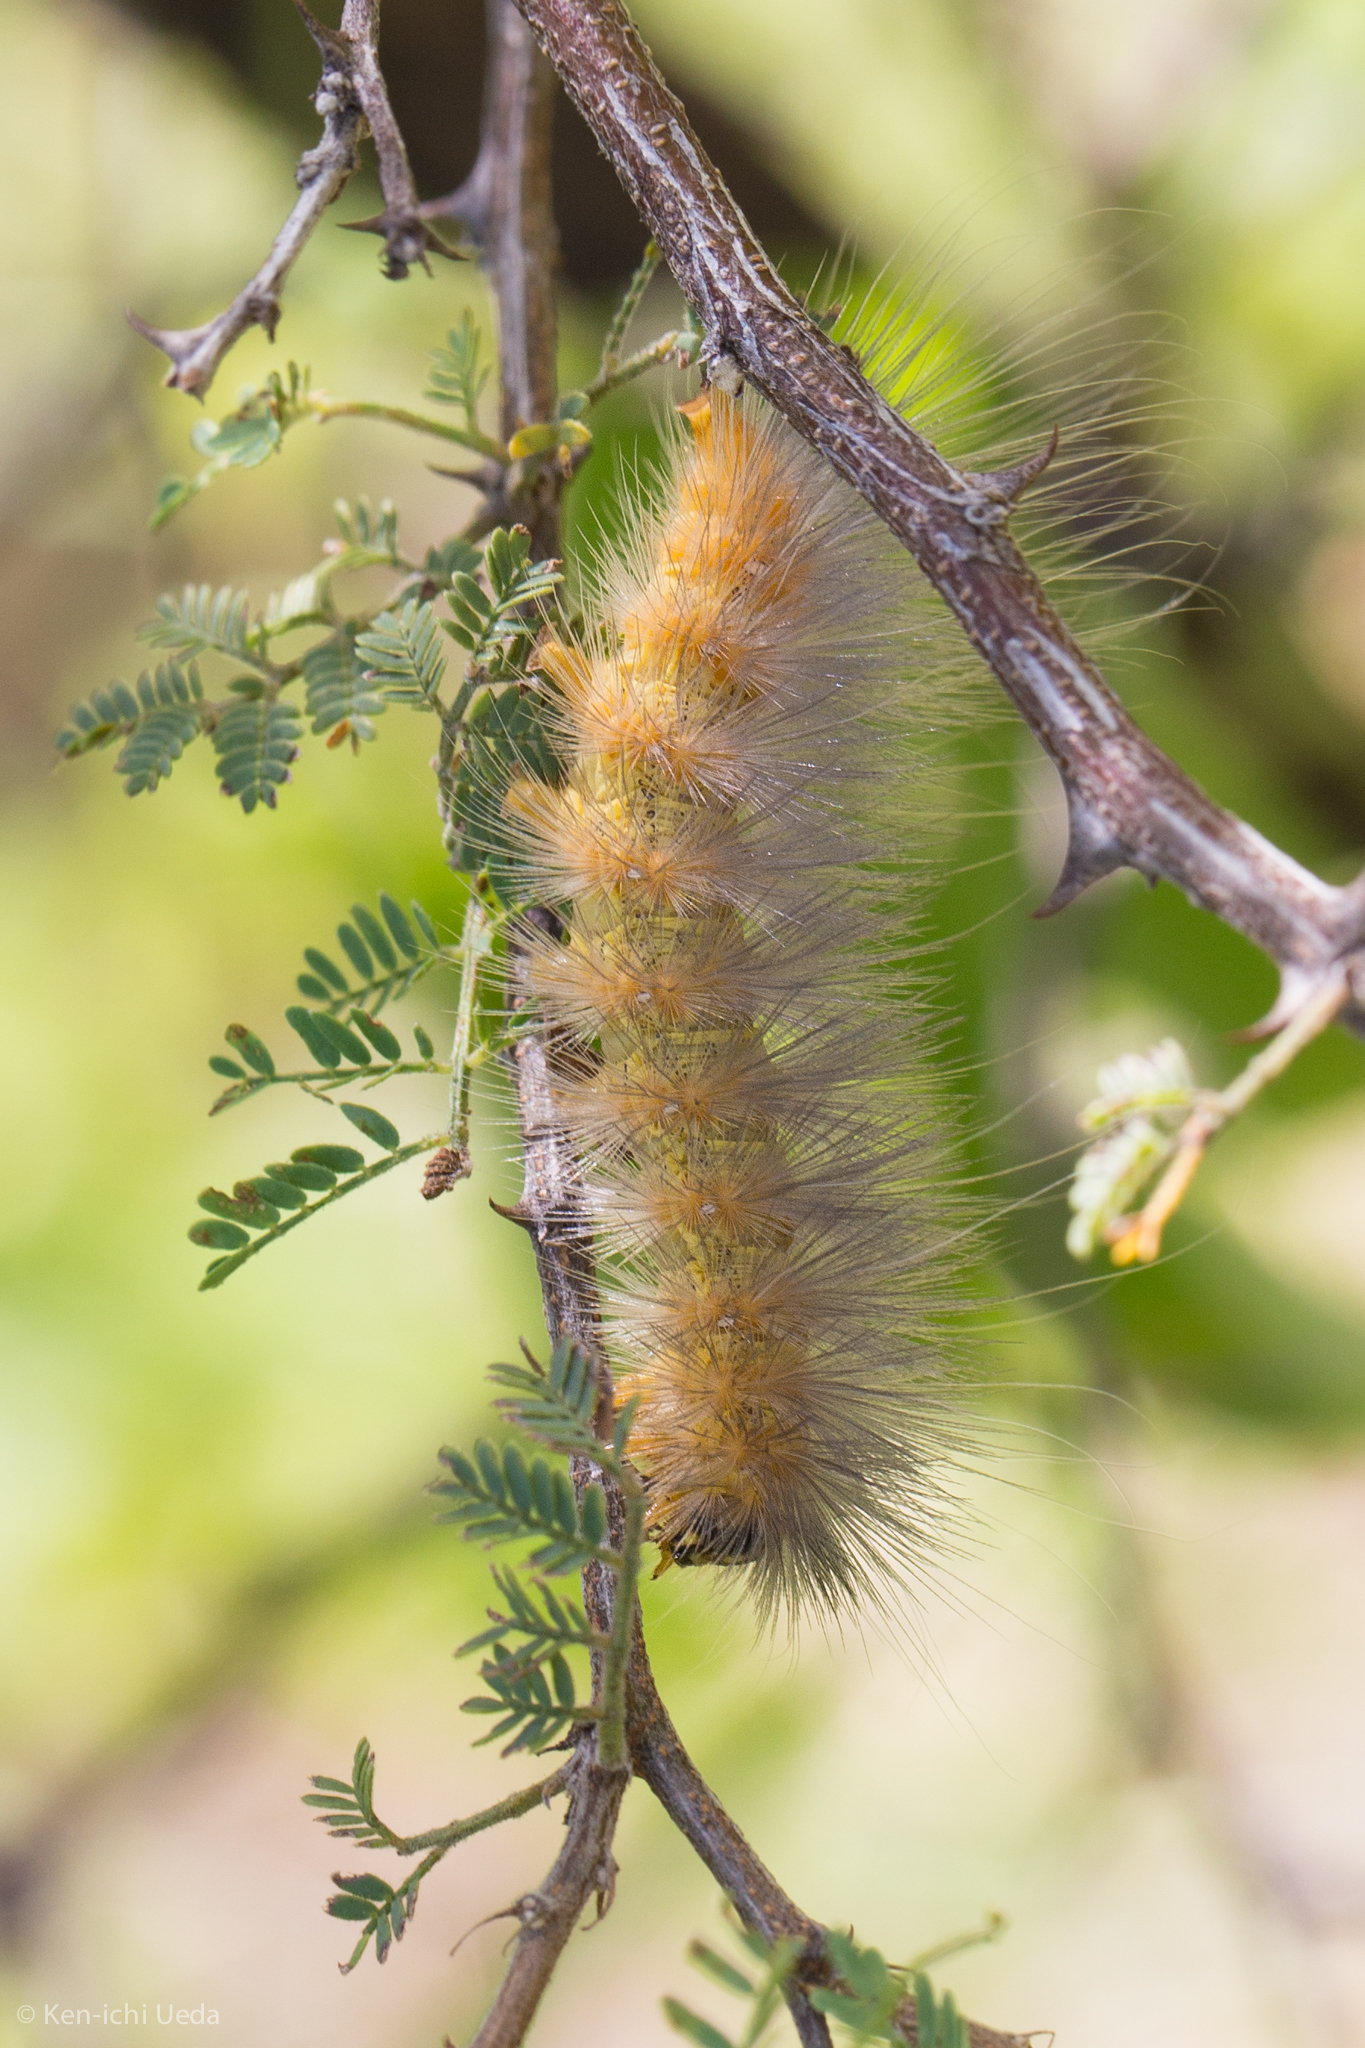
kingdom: Animalia
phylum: Arthropoda
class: Insecta
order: Lepidoptera
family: Erebidae
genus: Estigmene
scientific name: Estigmene
